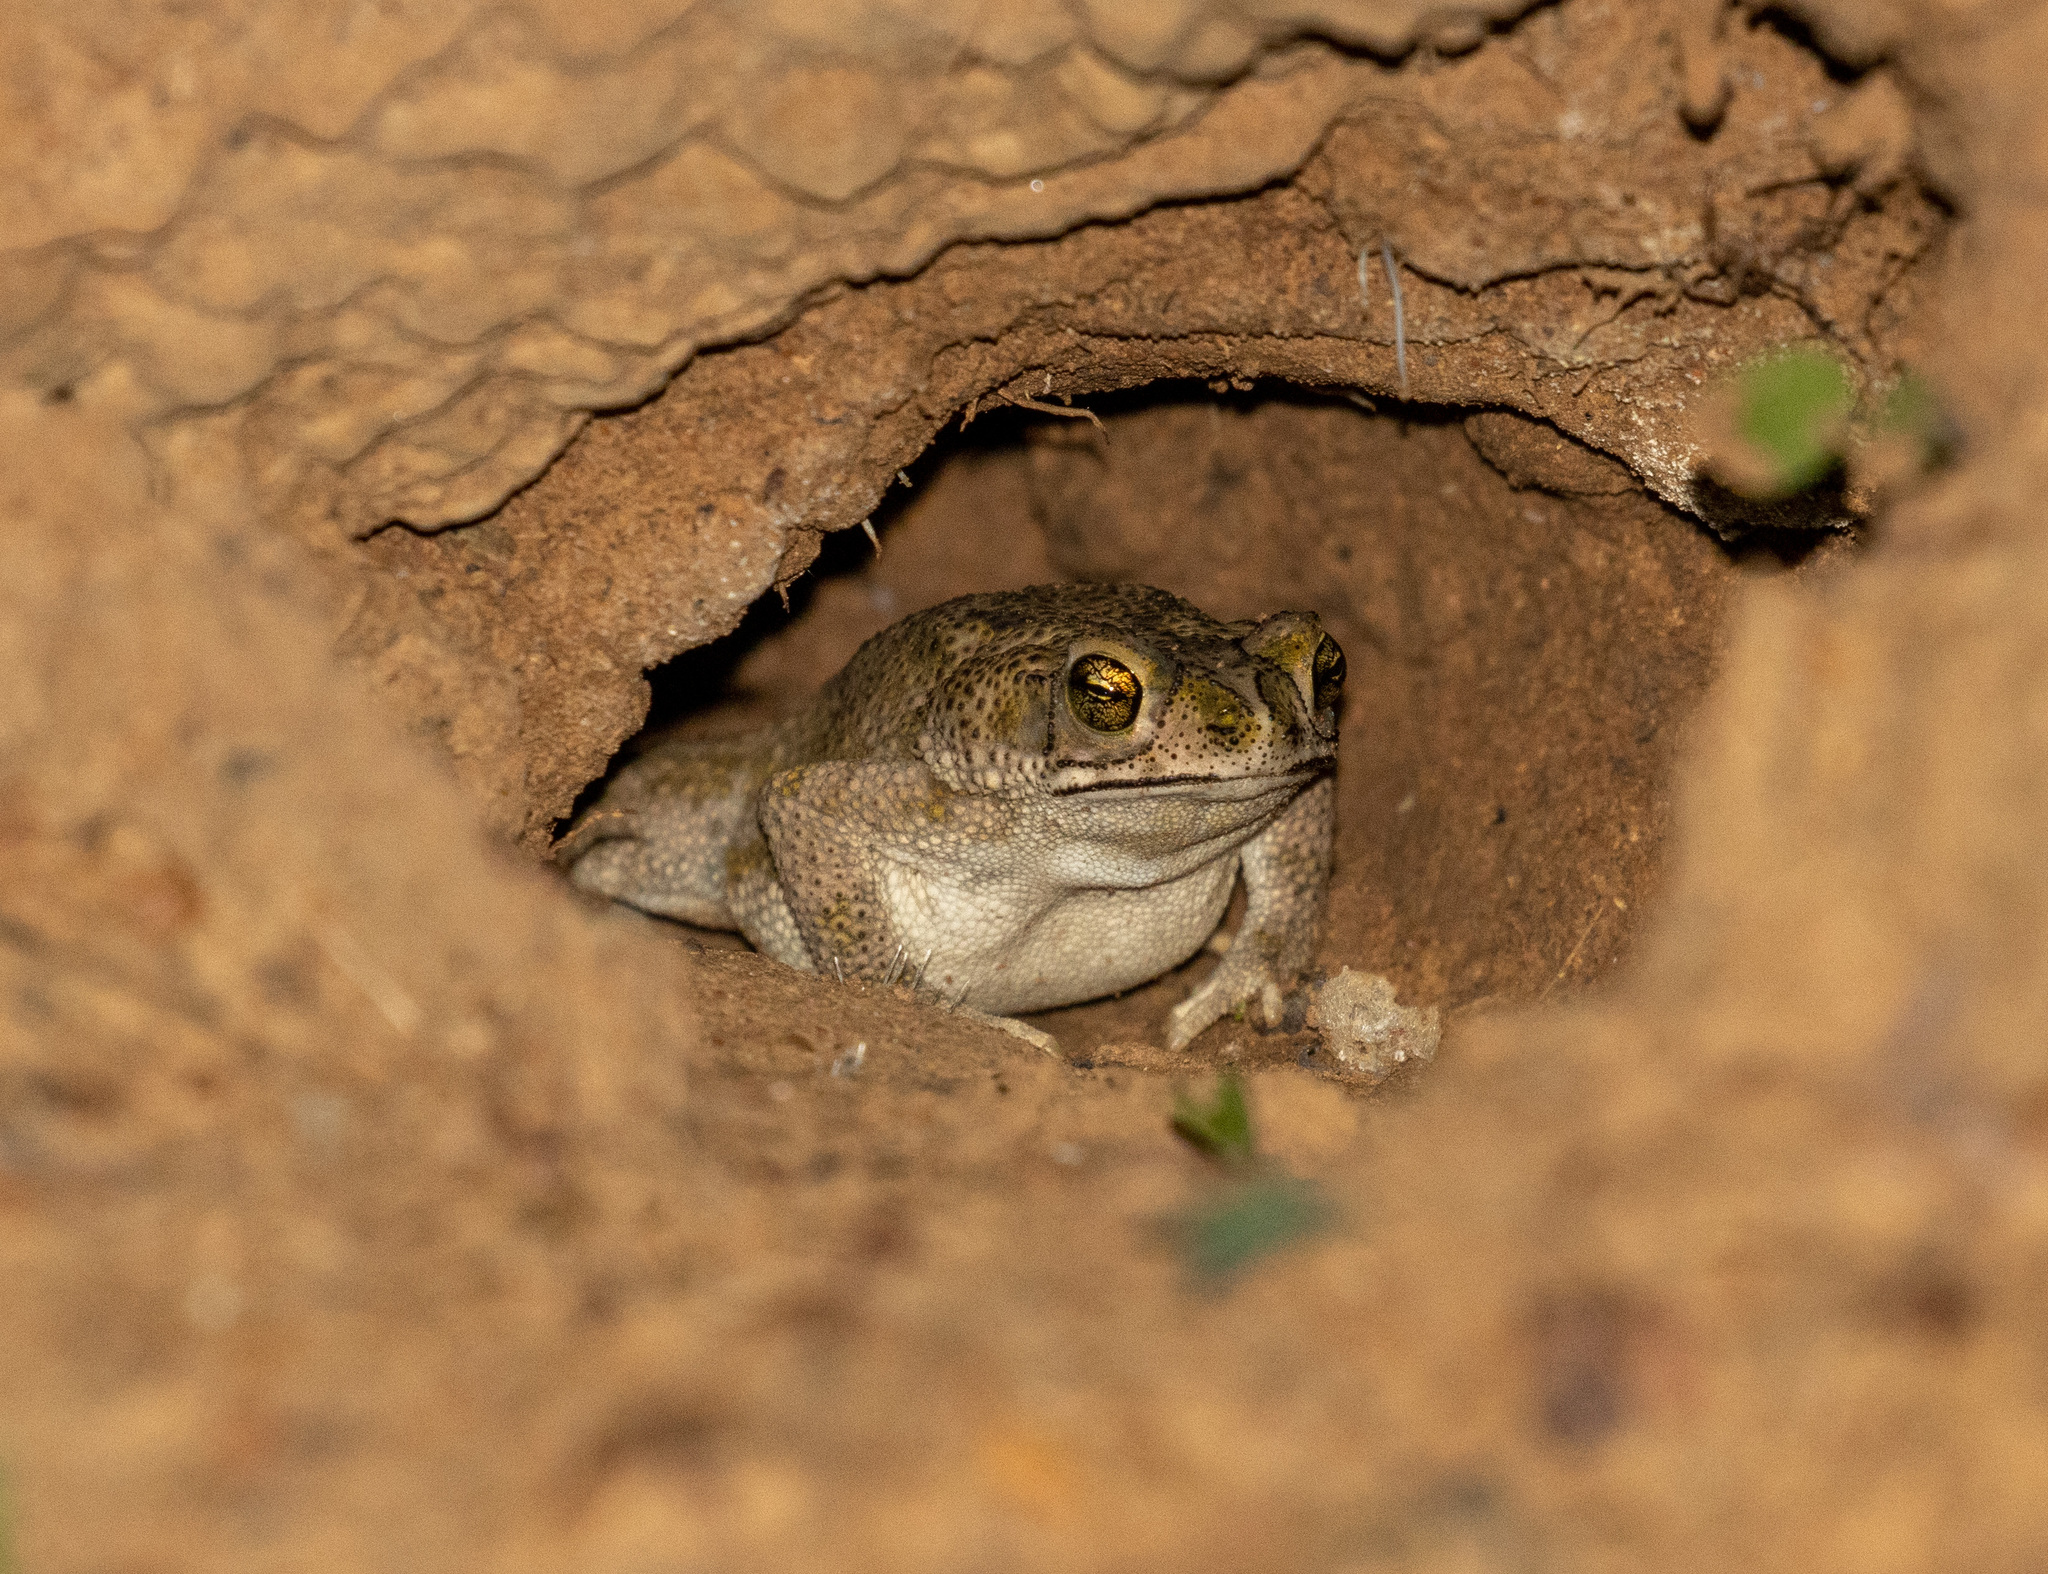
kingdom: Animalia
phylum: Chordata
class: Amphibia
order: Anura
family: Bufonidae
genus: Rhinella
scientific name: Rhinella granulosa
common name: Common lesser toad
